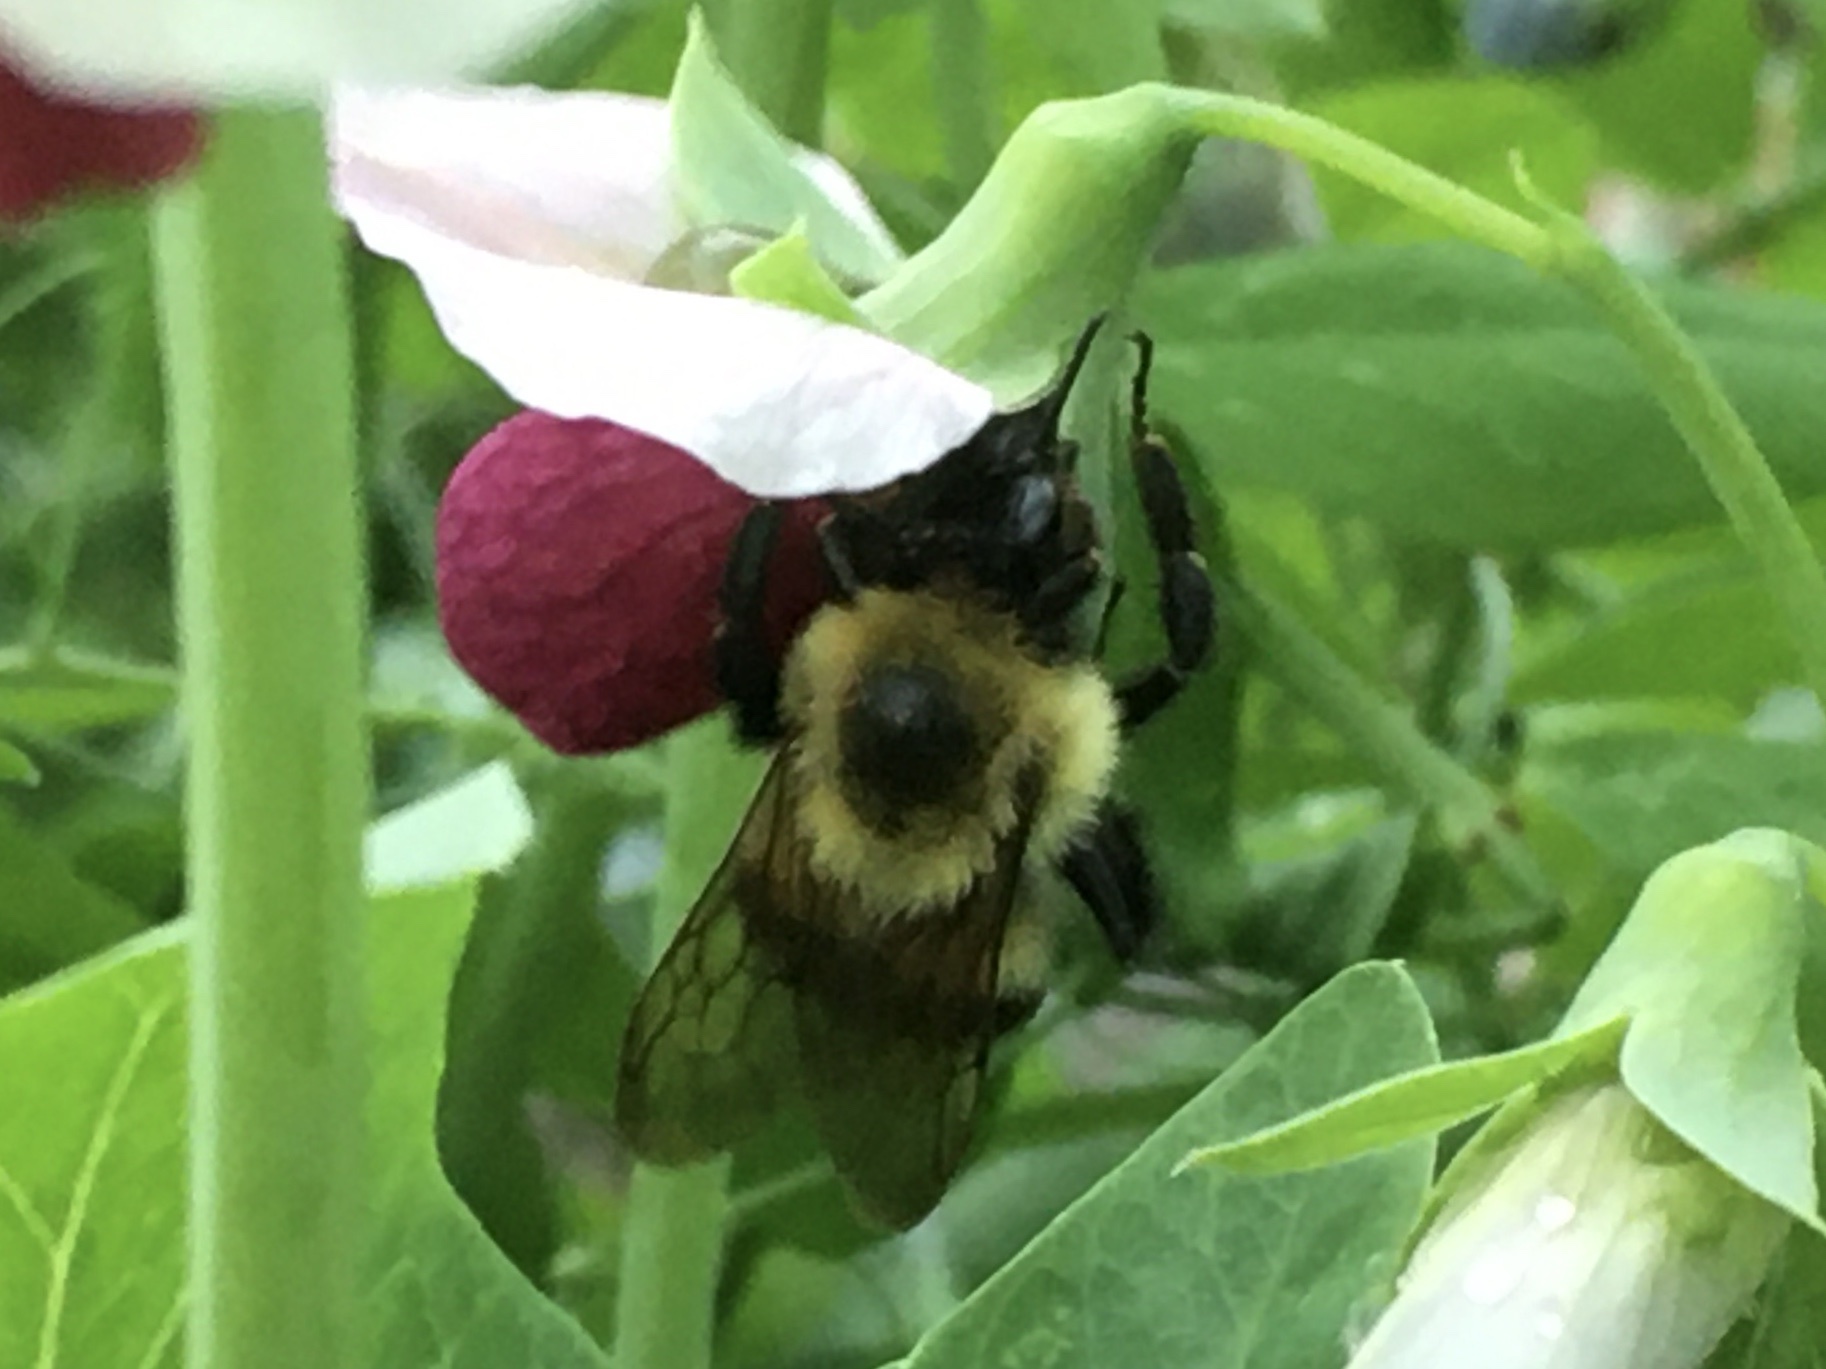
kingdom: Animalia
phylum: Arthropoda
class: Insecta
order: Hymenoptera
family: Apidae
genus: Bombus
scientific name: Bombus impatiens
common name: Common eastern bumble bee
